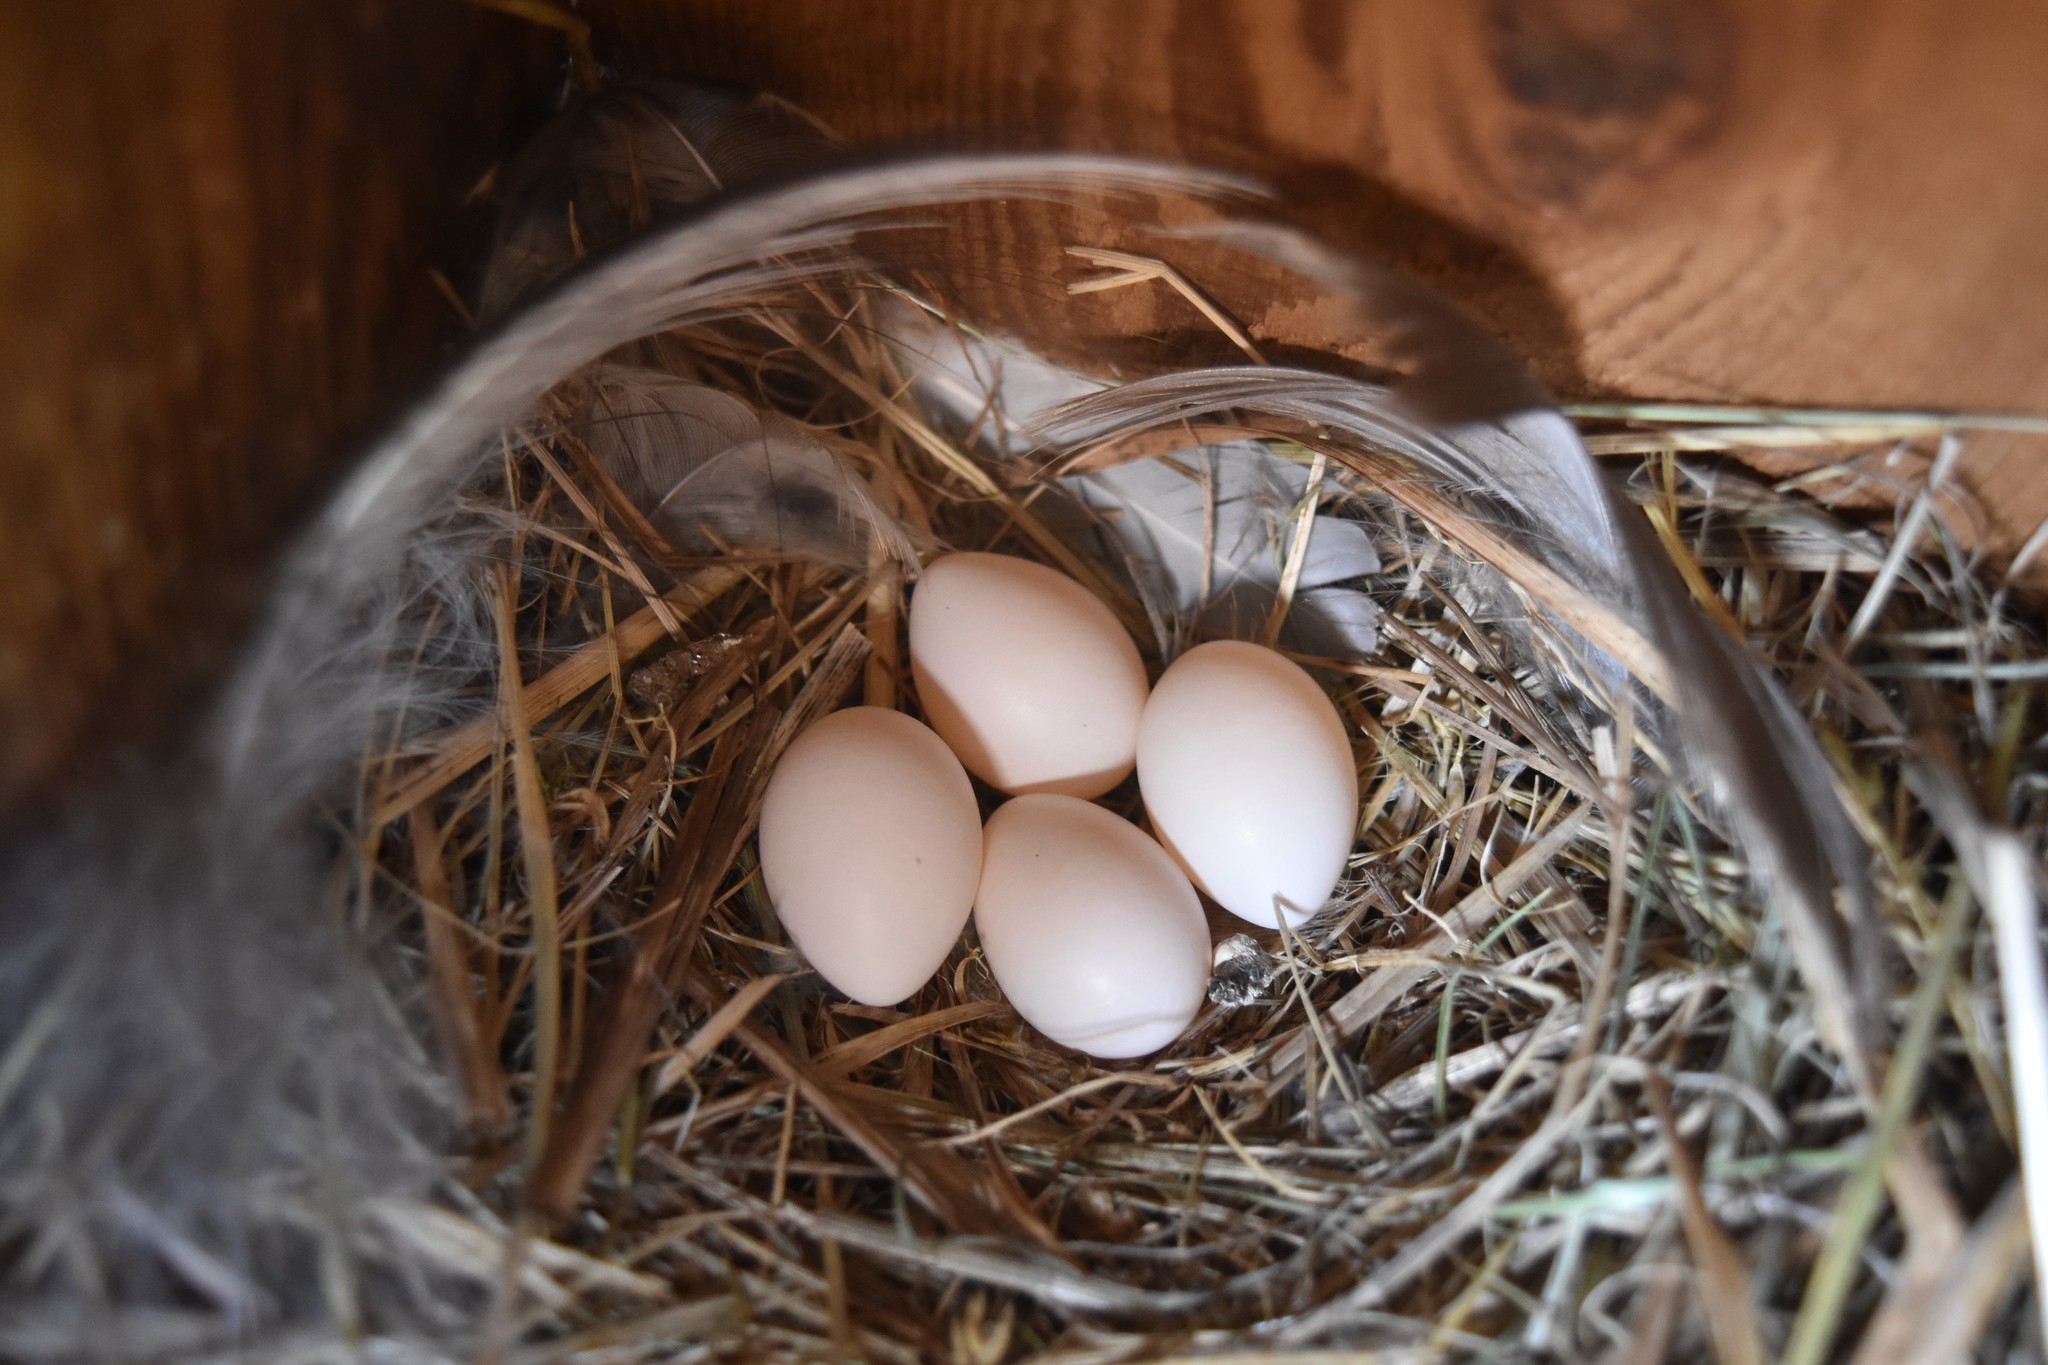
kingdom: Animalia
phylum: Chordata
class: Aves
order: Passeriformes
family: Hirundinidae
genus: Tachycineta
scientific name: Tachycineta bicolor
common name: Tree swallow
